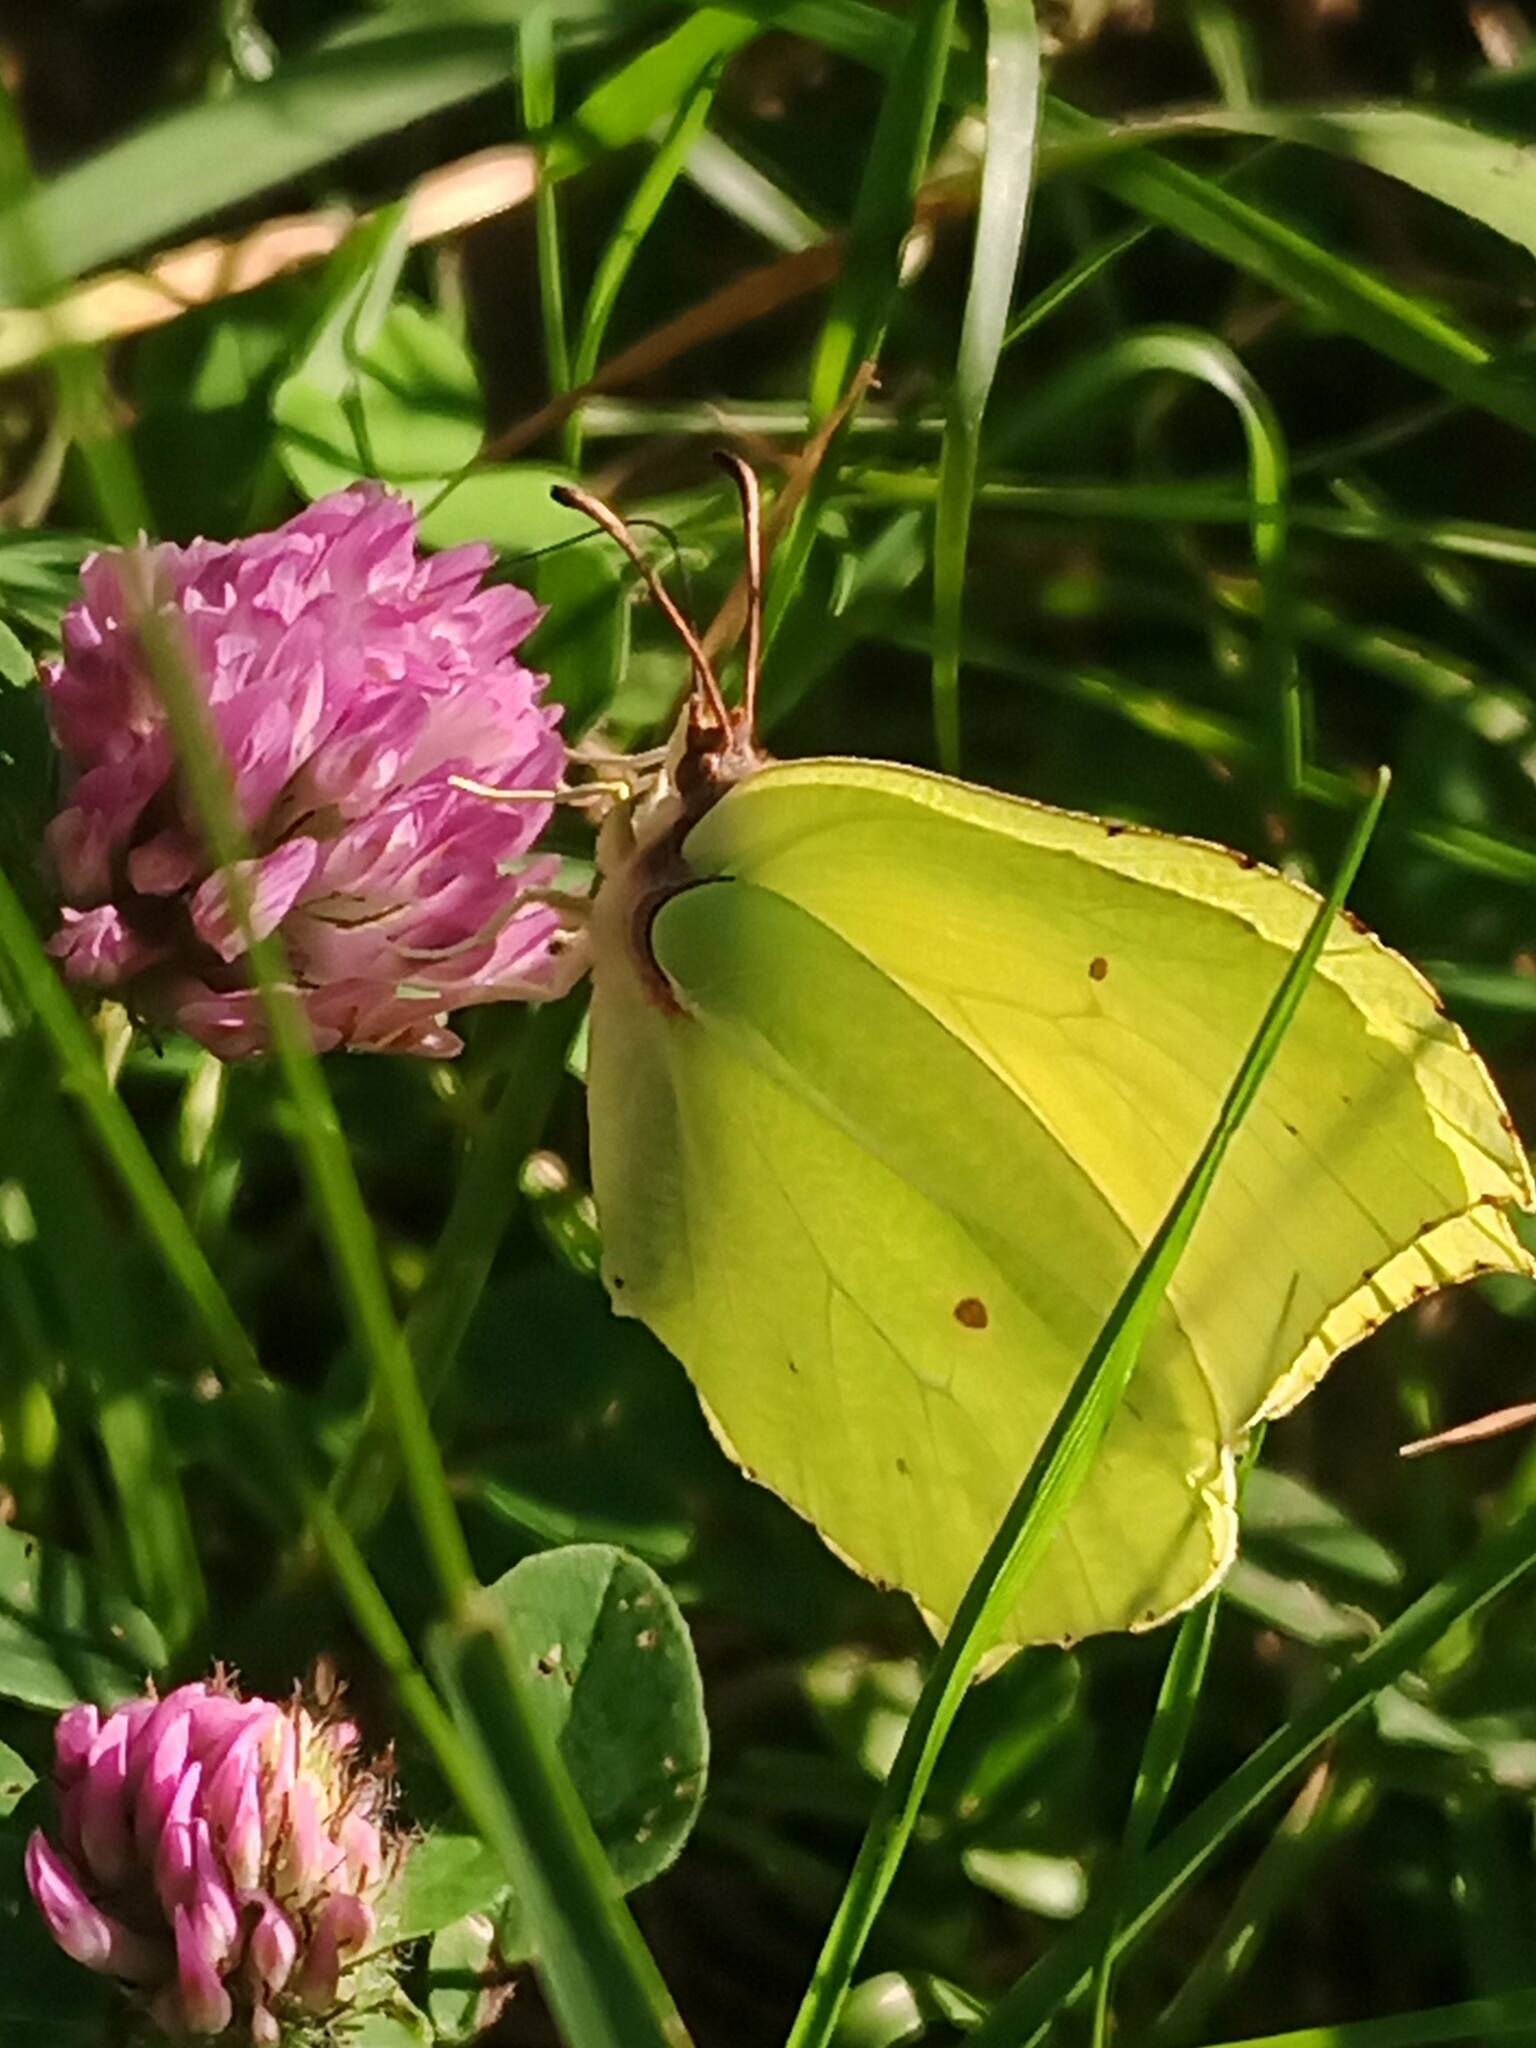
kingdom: Animalia
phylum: Arthropoda
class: Insecta
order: Lepidoptera
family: Pieridae
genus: Gonepteryx
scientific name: Gonepteryx rhamni
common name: Brimstone
